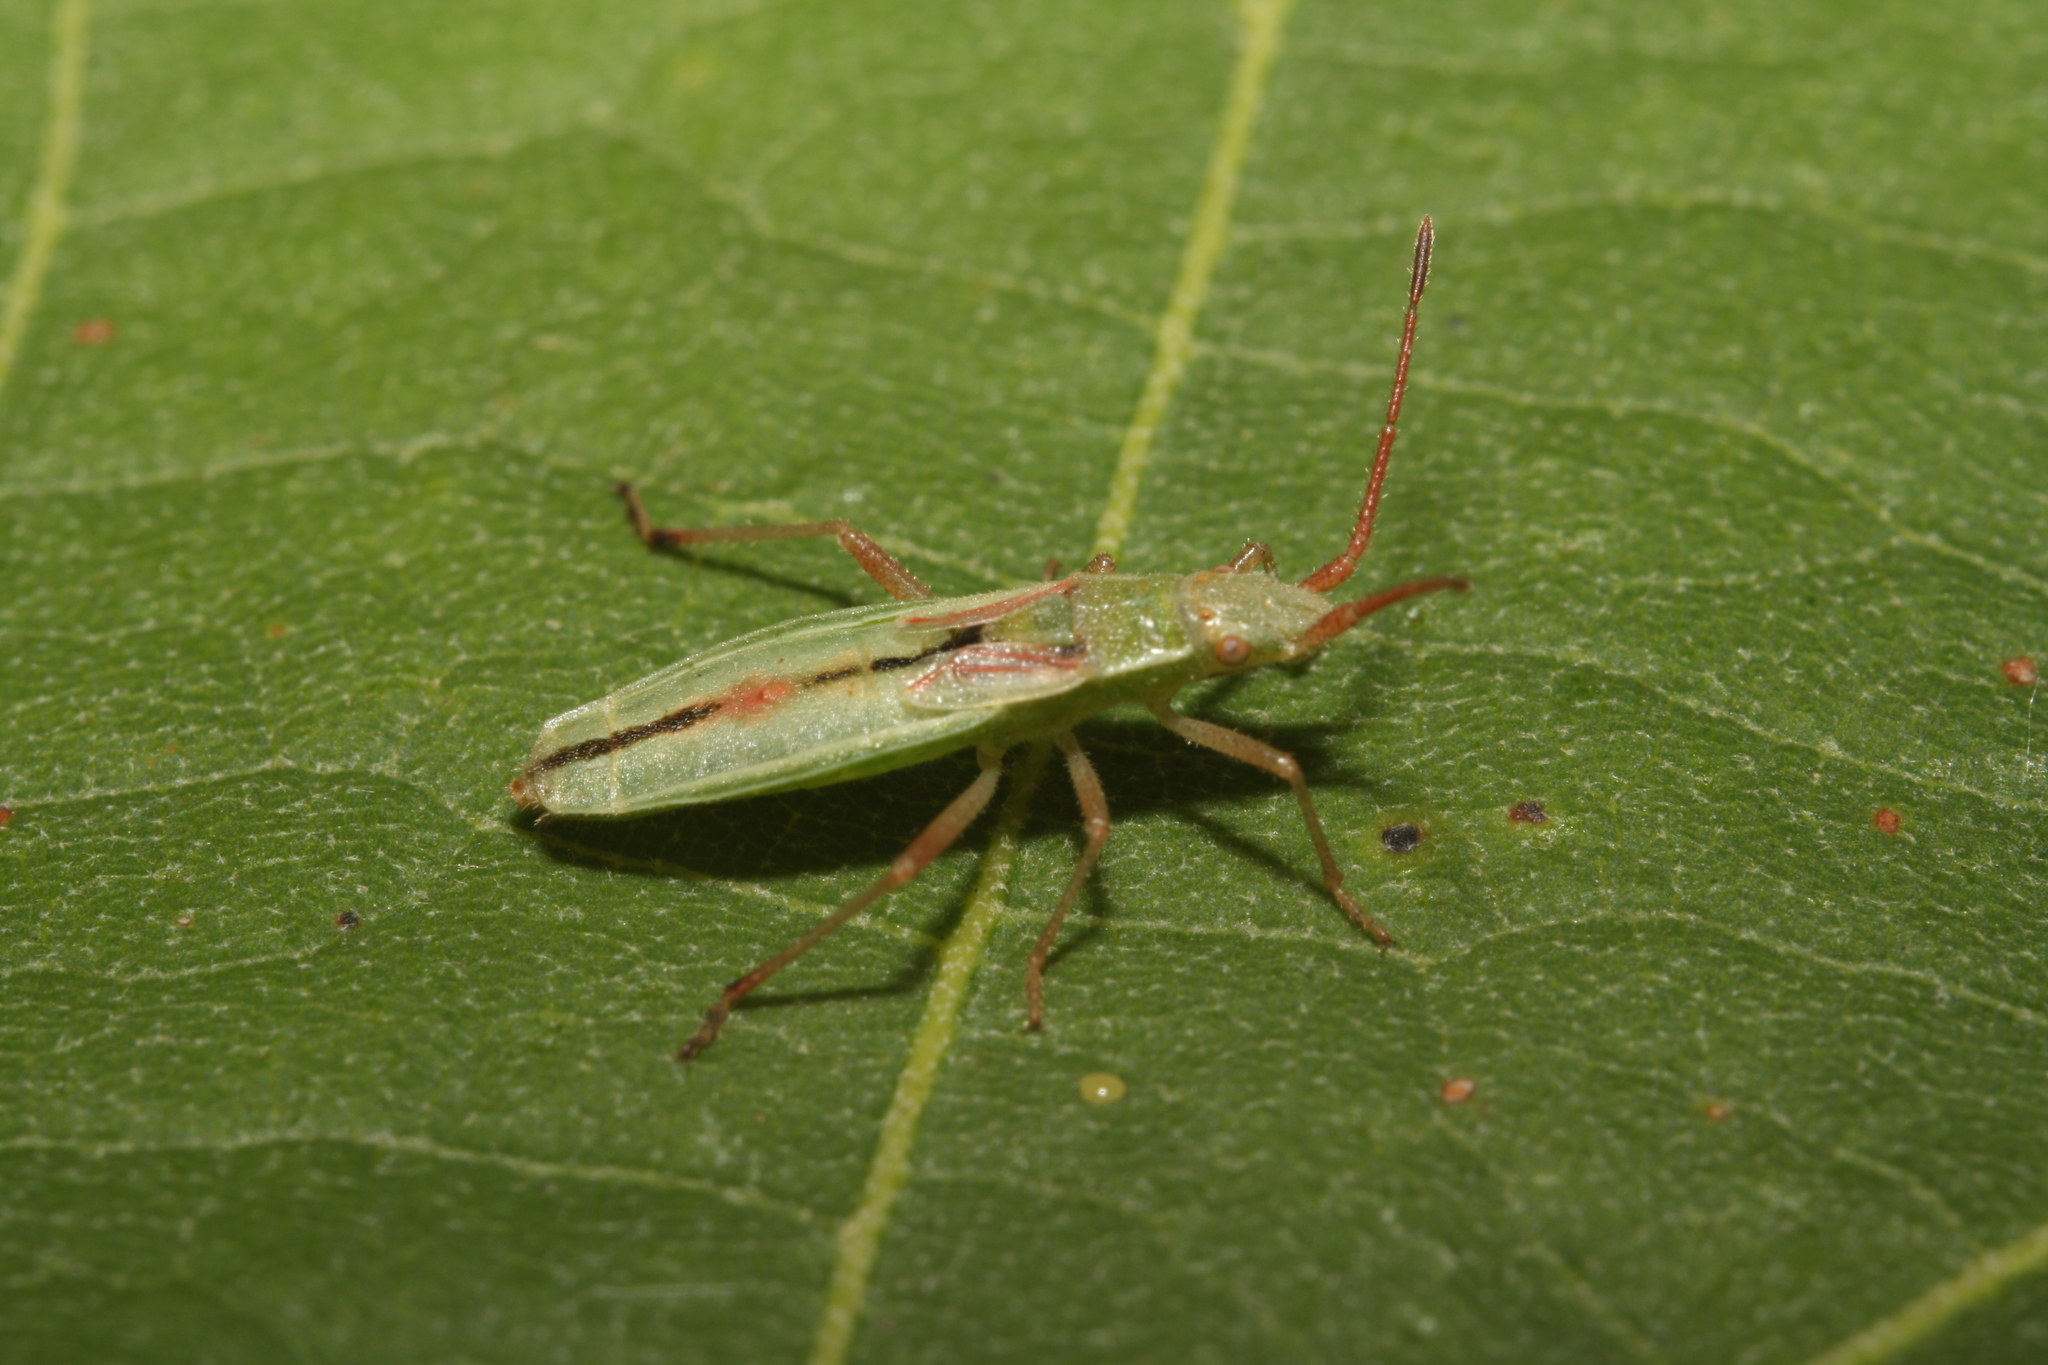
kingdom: Animalia
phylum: Arthropoda
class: Insecta
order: Hemiptera
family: Rhopalidae
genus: Myrmus
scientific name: Myrmus miriformis
